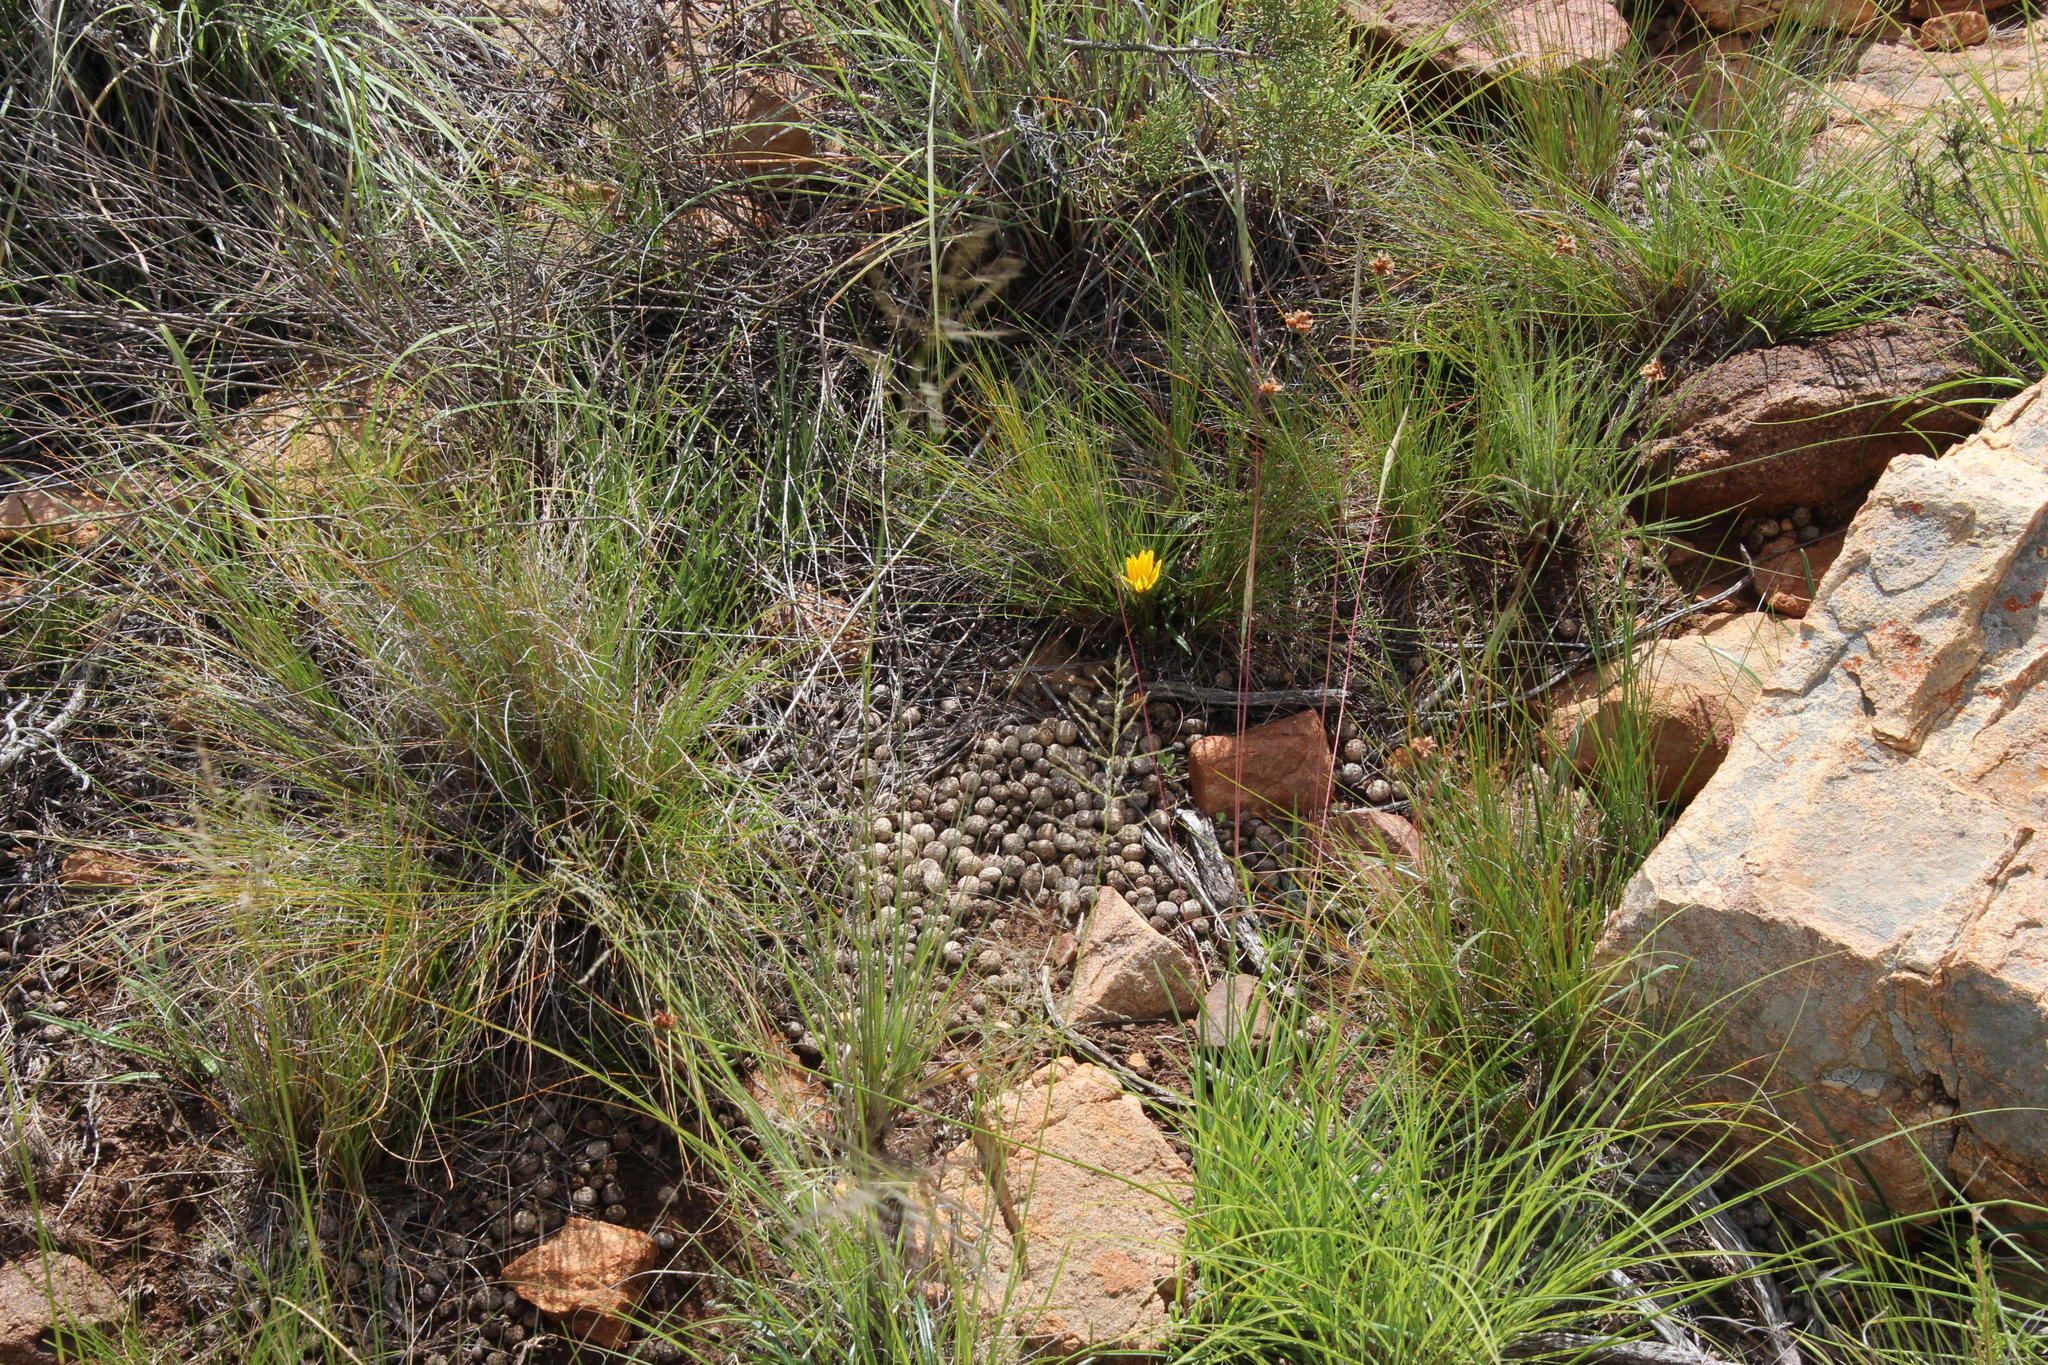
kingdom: Animalia
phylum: Chordata
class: Mammalia
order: Lagomorpha
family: Leporidae
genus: Pronolagus
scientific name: Pronolagus saundersiae
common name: Hewitt's red rock hare
